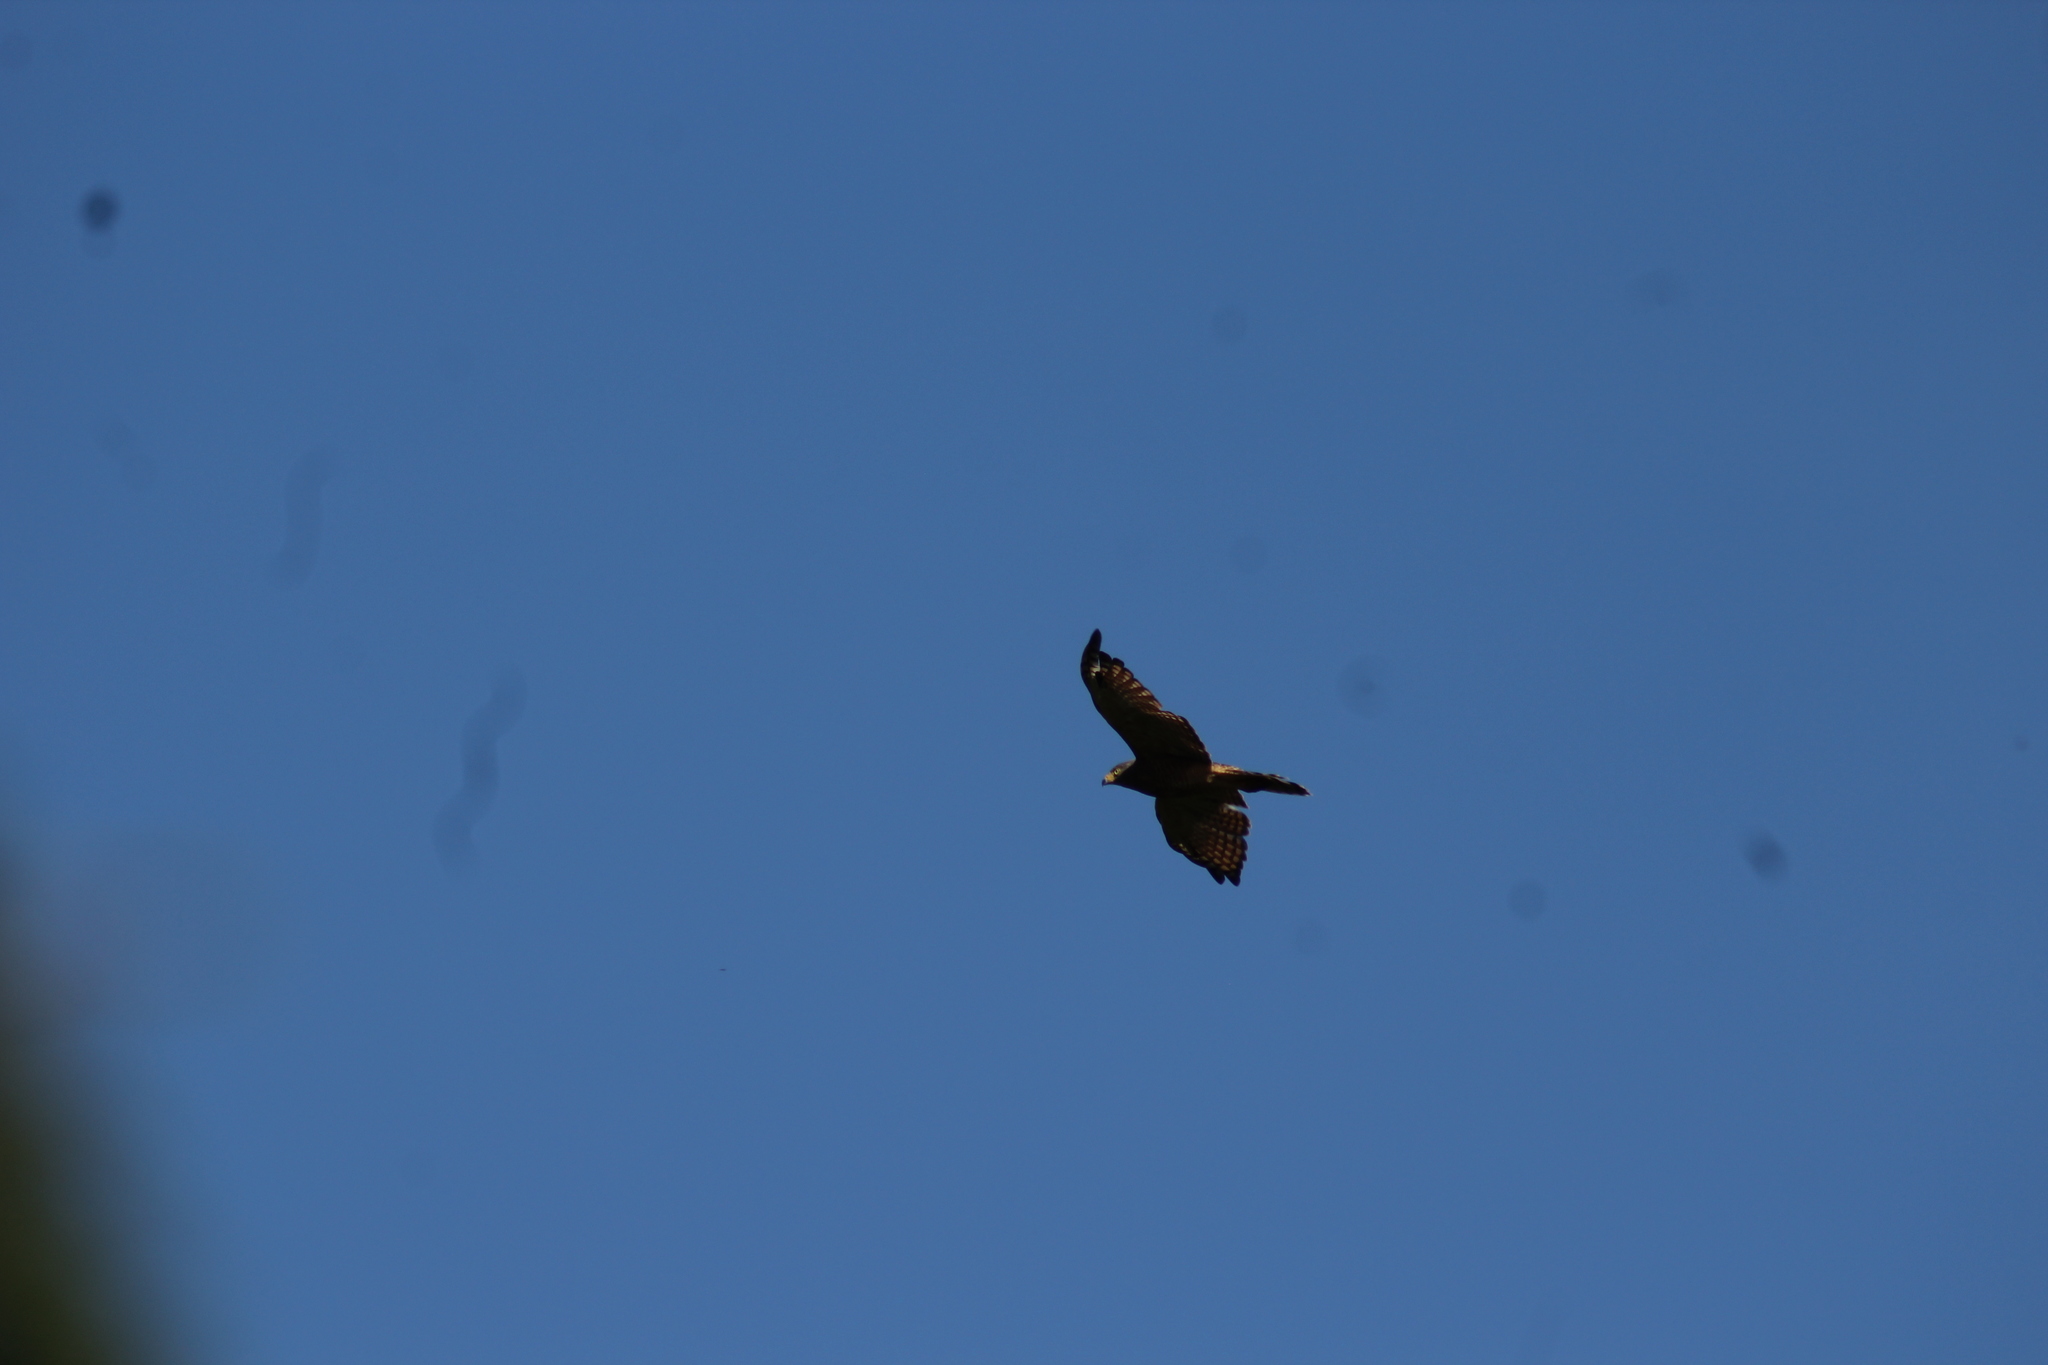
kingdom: Animalia
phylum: Chordata
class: Aves
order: Accipitriformes
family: Accipitridae
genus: Rupornis
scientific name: Rupornis magnirostris
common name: Roadside hawk
